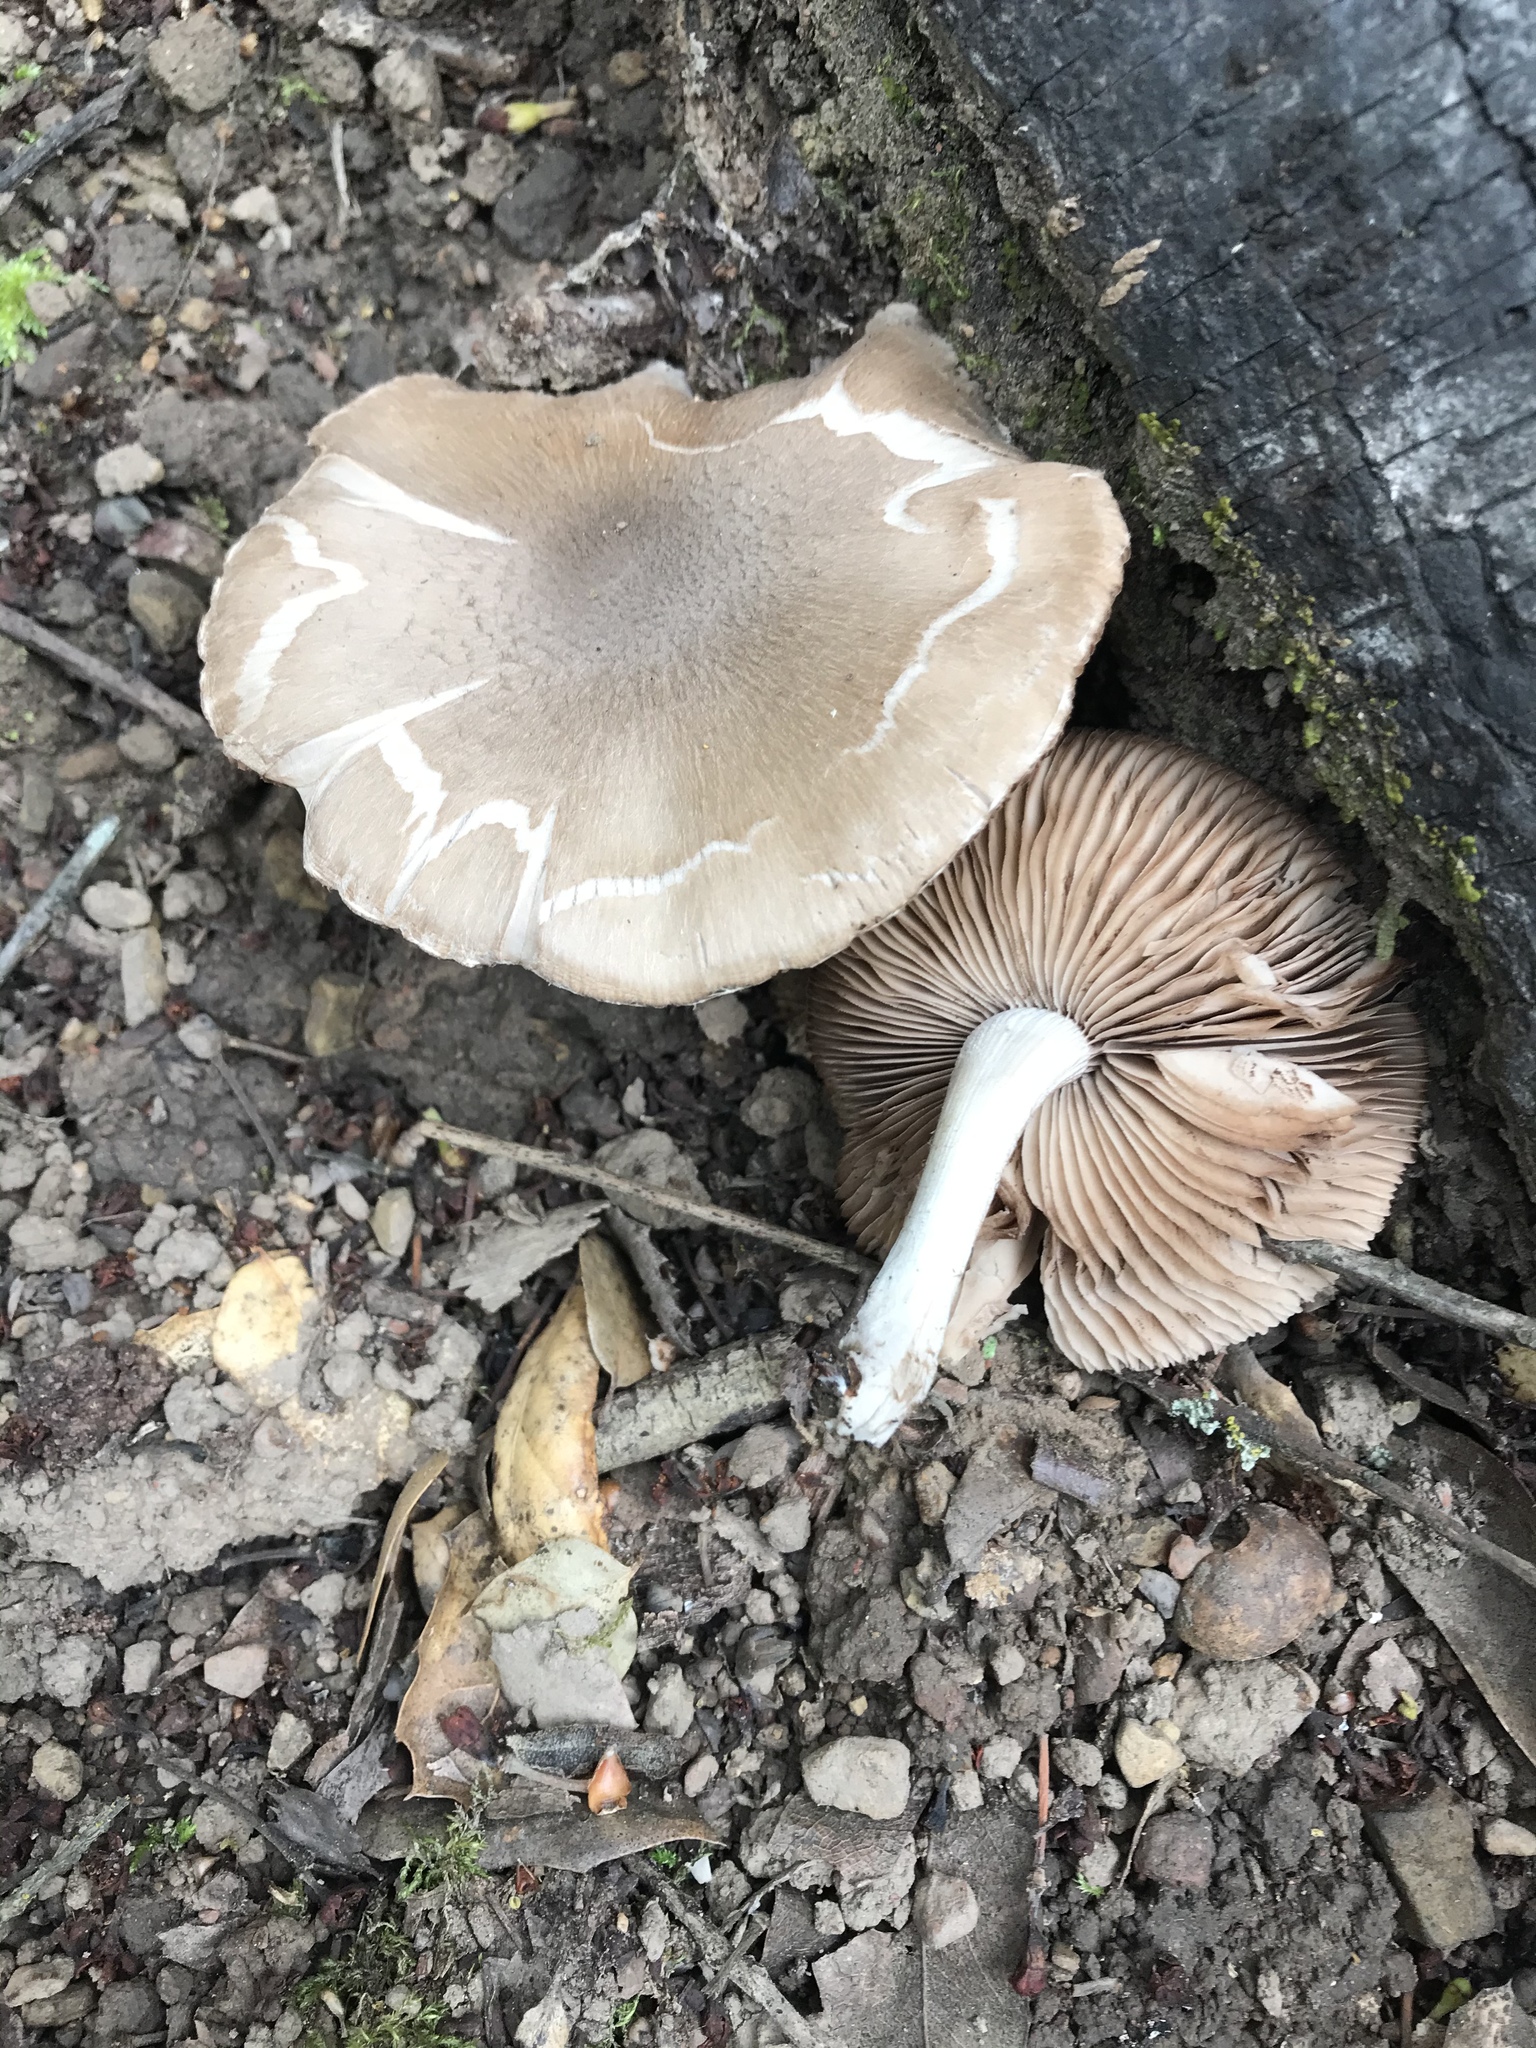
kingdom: Fungi
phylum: Basidiomycota
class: Agaricomycetes
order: Agaricales
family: Psathyrellaceae
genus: Psathyrella
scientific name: Psathyrella uliginicola
